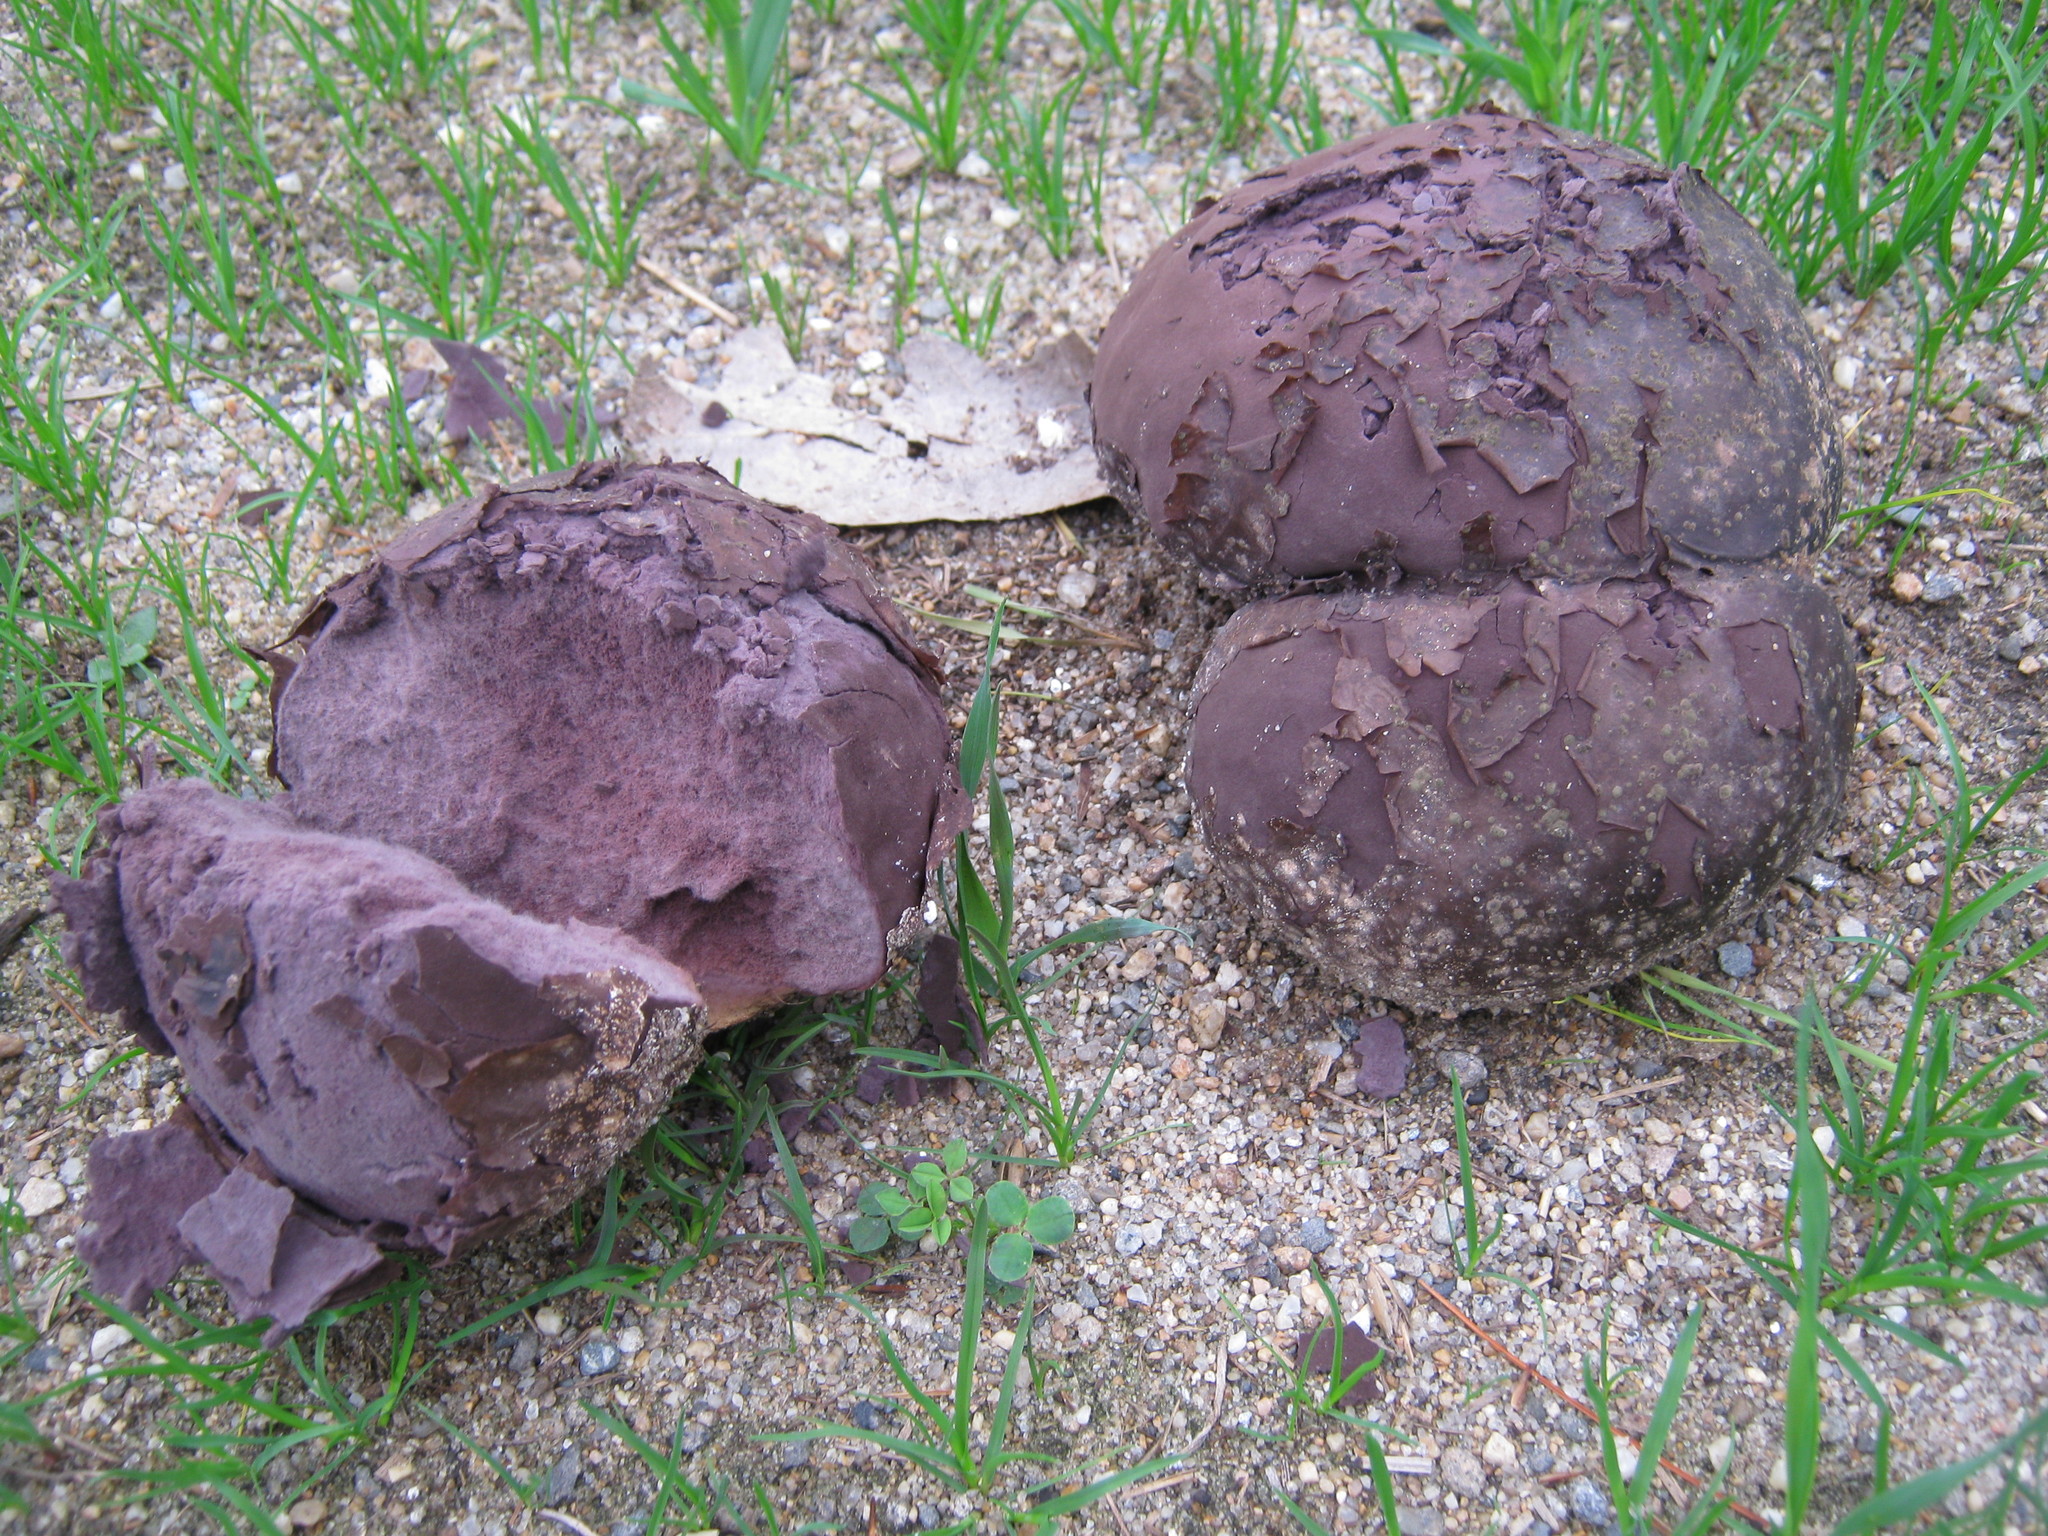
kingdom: Fungi
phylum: Basidiomycota
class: Agaricomycetes
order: Agaricales
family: Lycoperdaceae
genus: Calvatia
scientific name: Calvatia cyathiformis
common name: Purple-spored puffball
